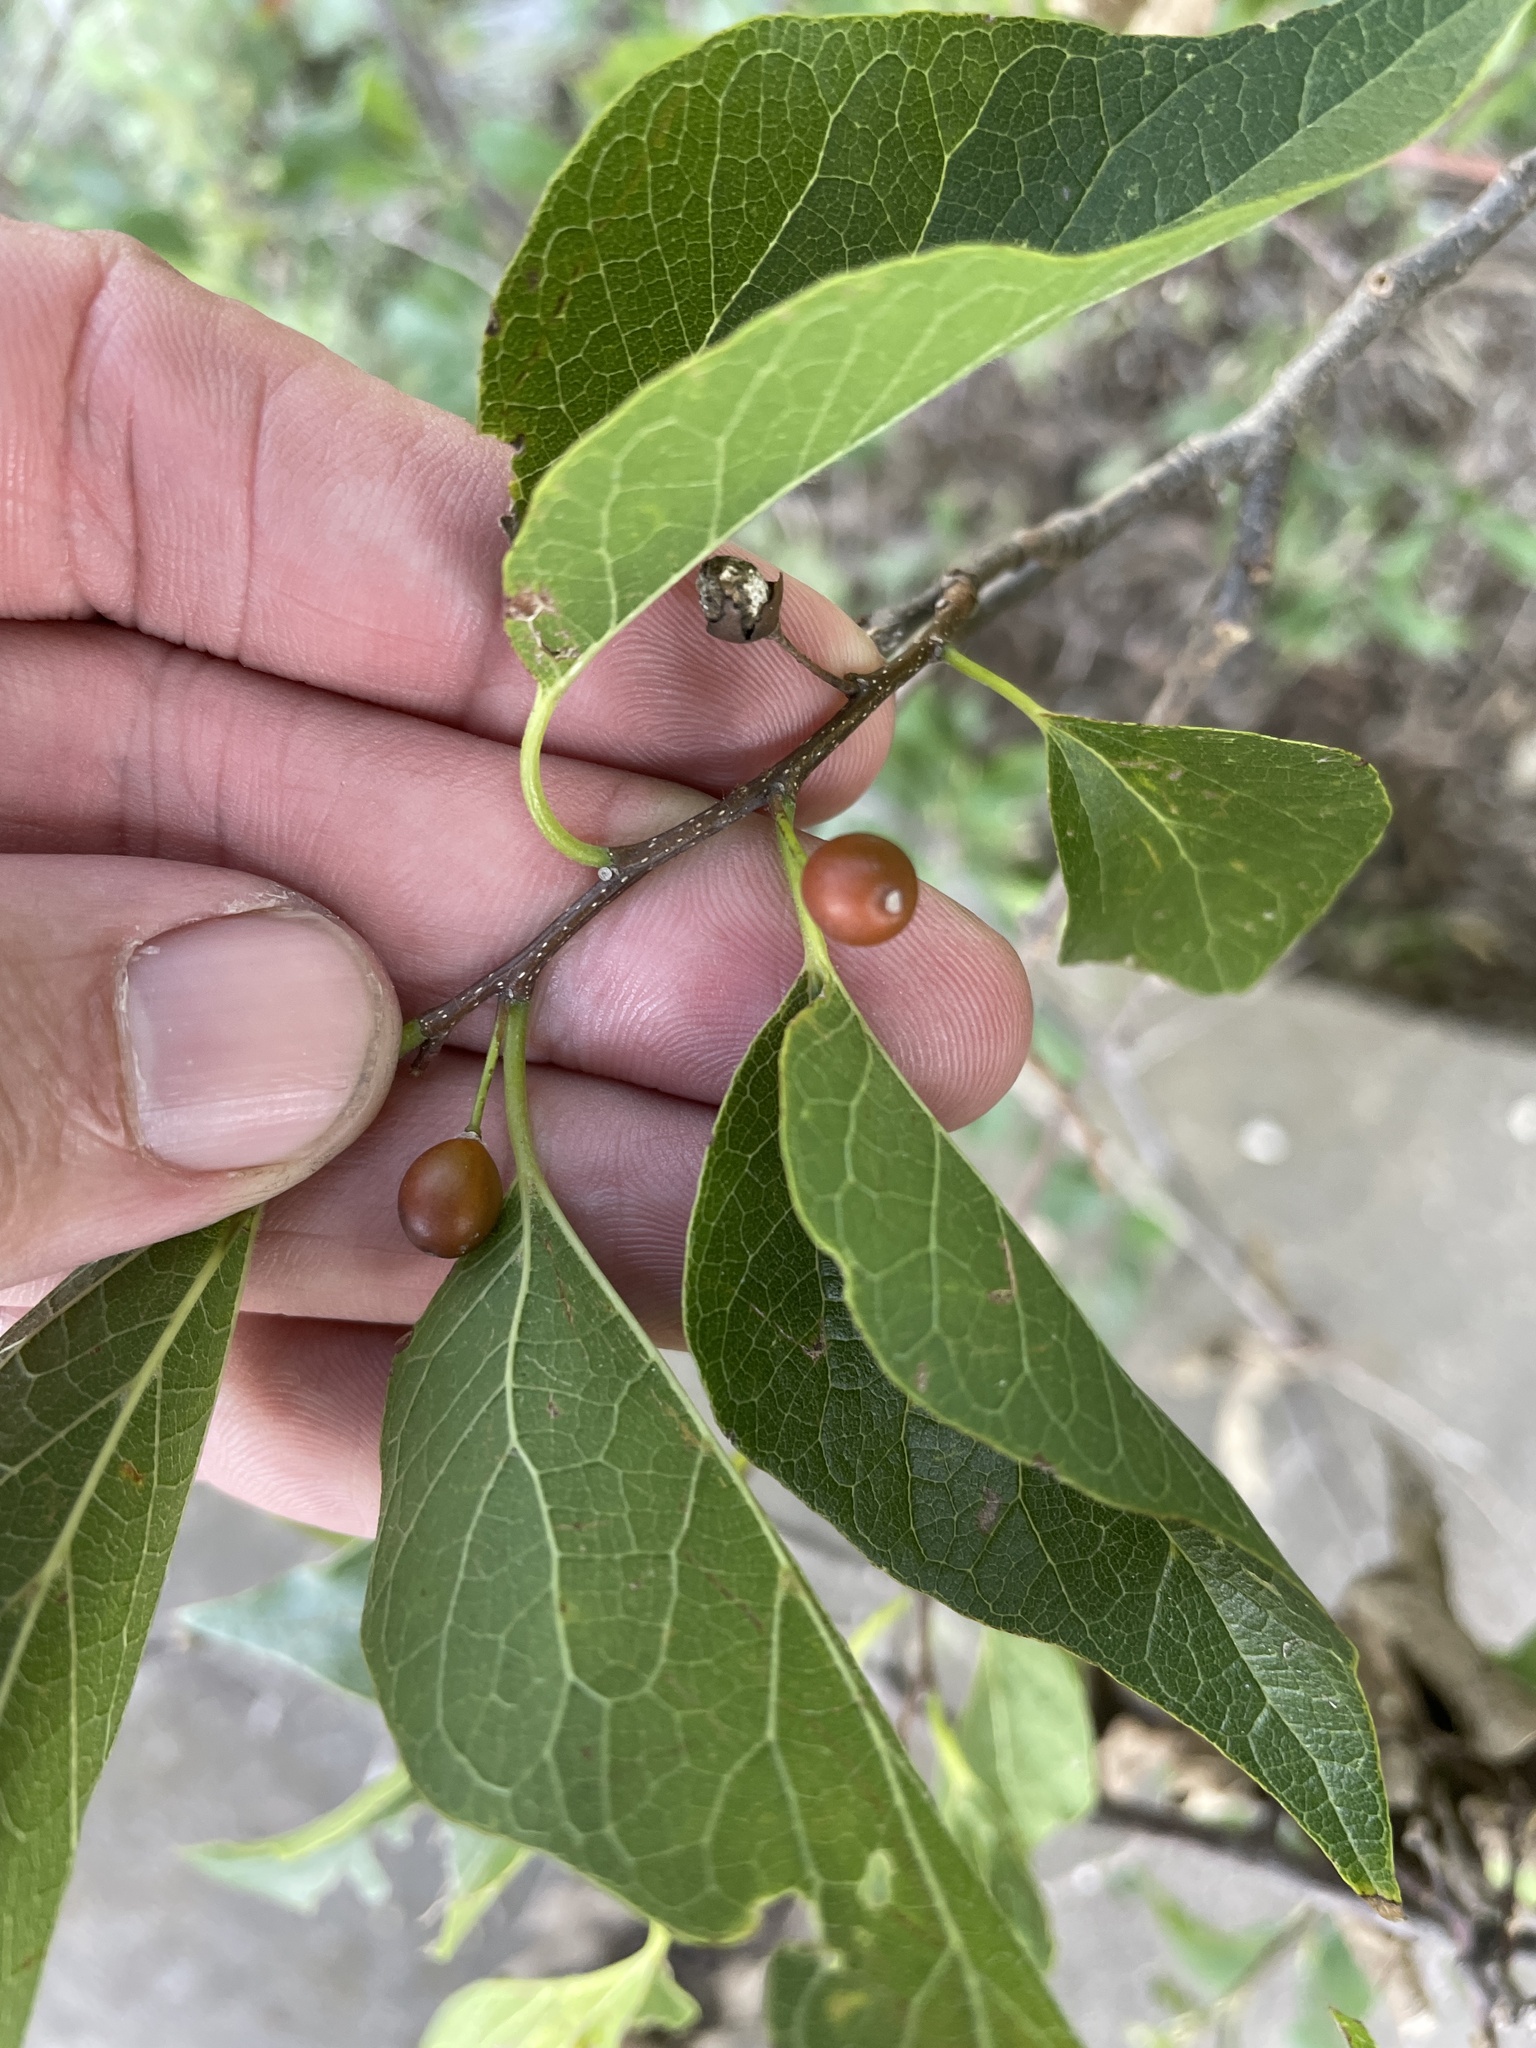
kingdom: Plantae
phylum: Tracheophyta
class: Magnoliopsida
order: Rosales
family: Cannabaceae
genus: Celtis
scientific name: Celtis laevigata
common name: Sugarberry
